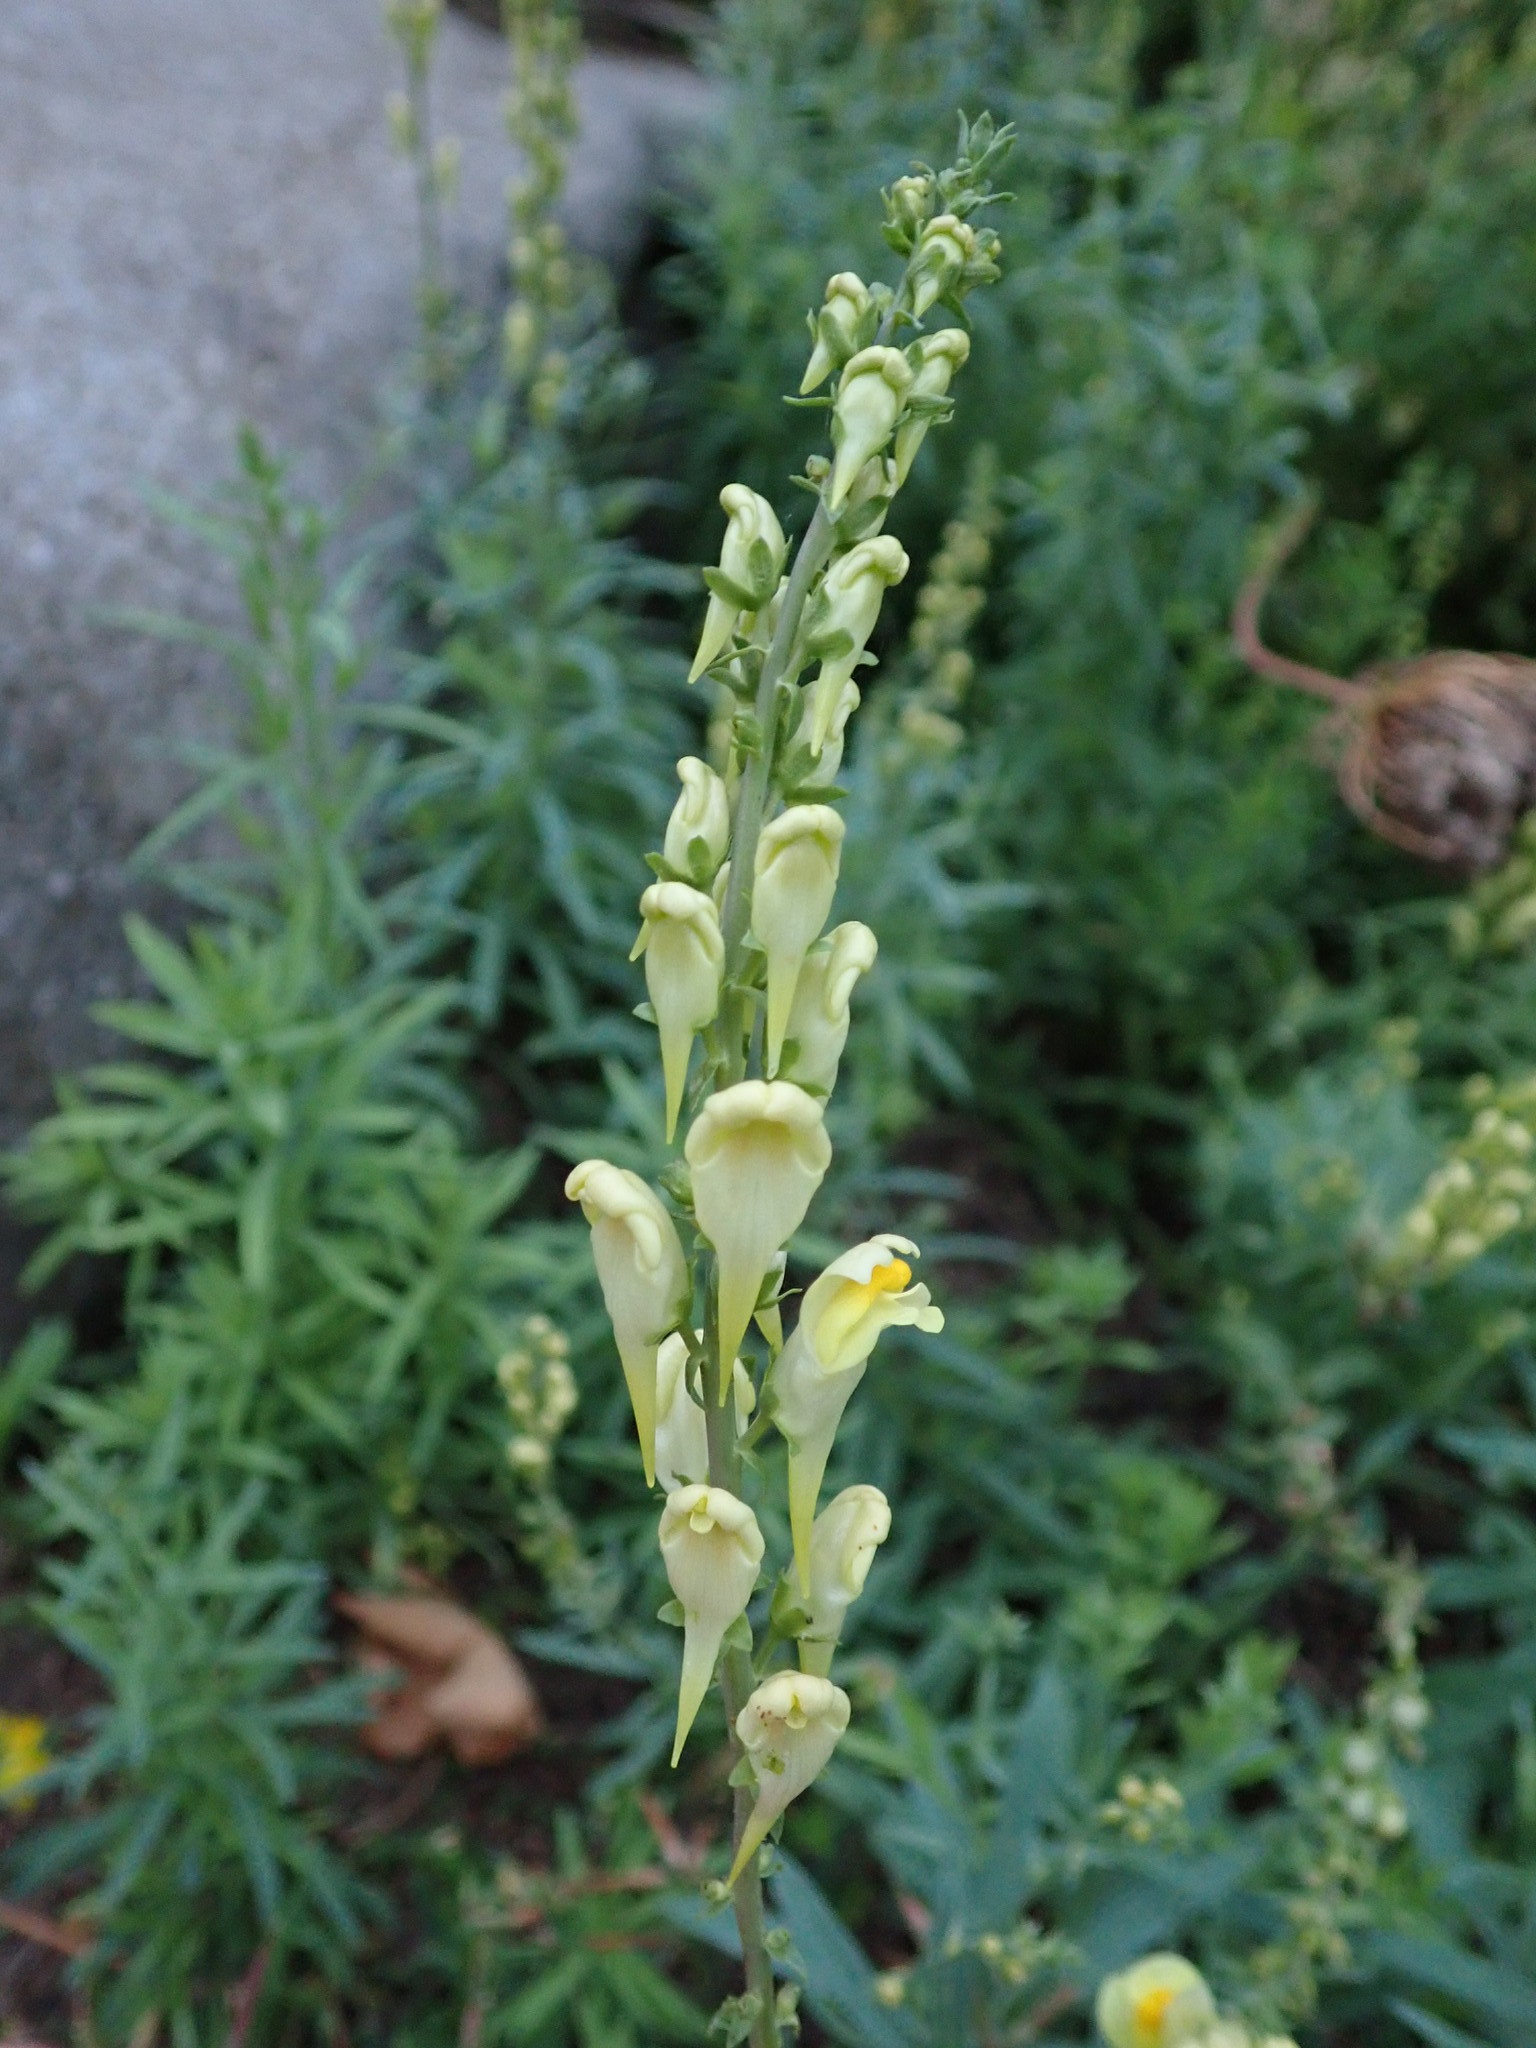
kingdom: Plantae
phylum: Tracheophyta
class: Magnoliopsida
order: Lamiales
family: Plantaginaceae
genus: Linaria
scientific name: Linaria vulgaris
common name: Butter and eggs
